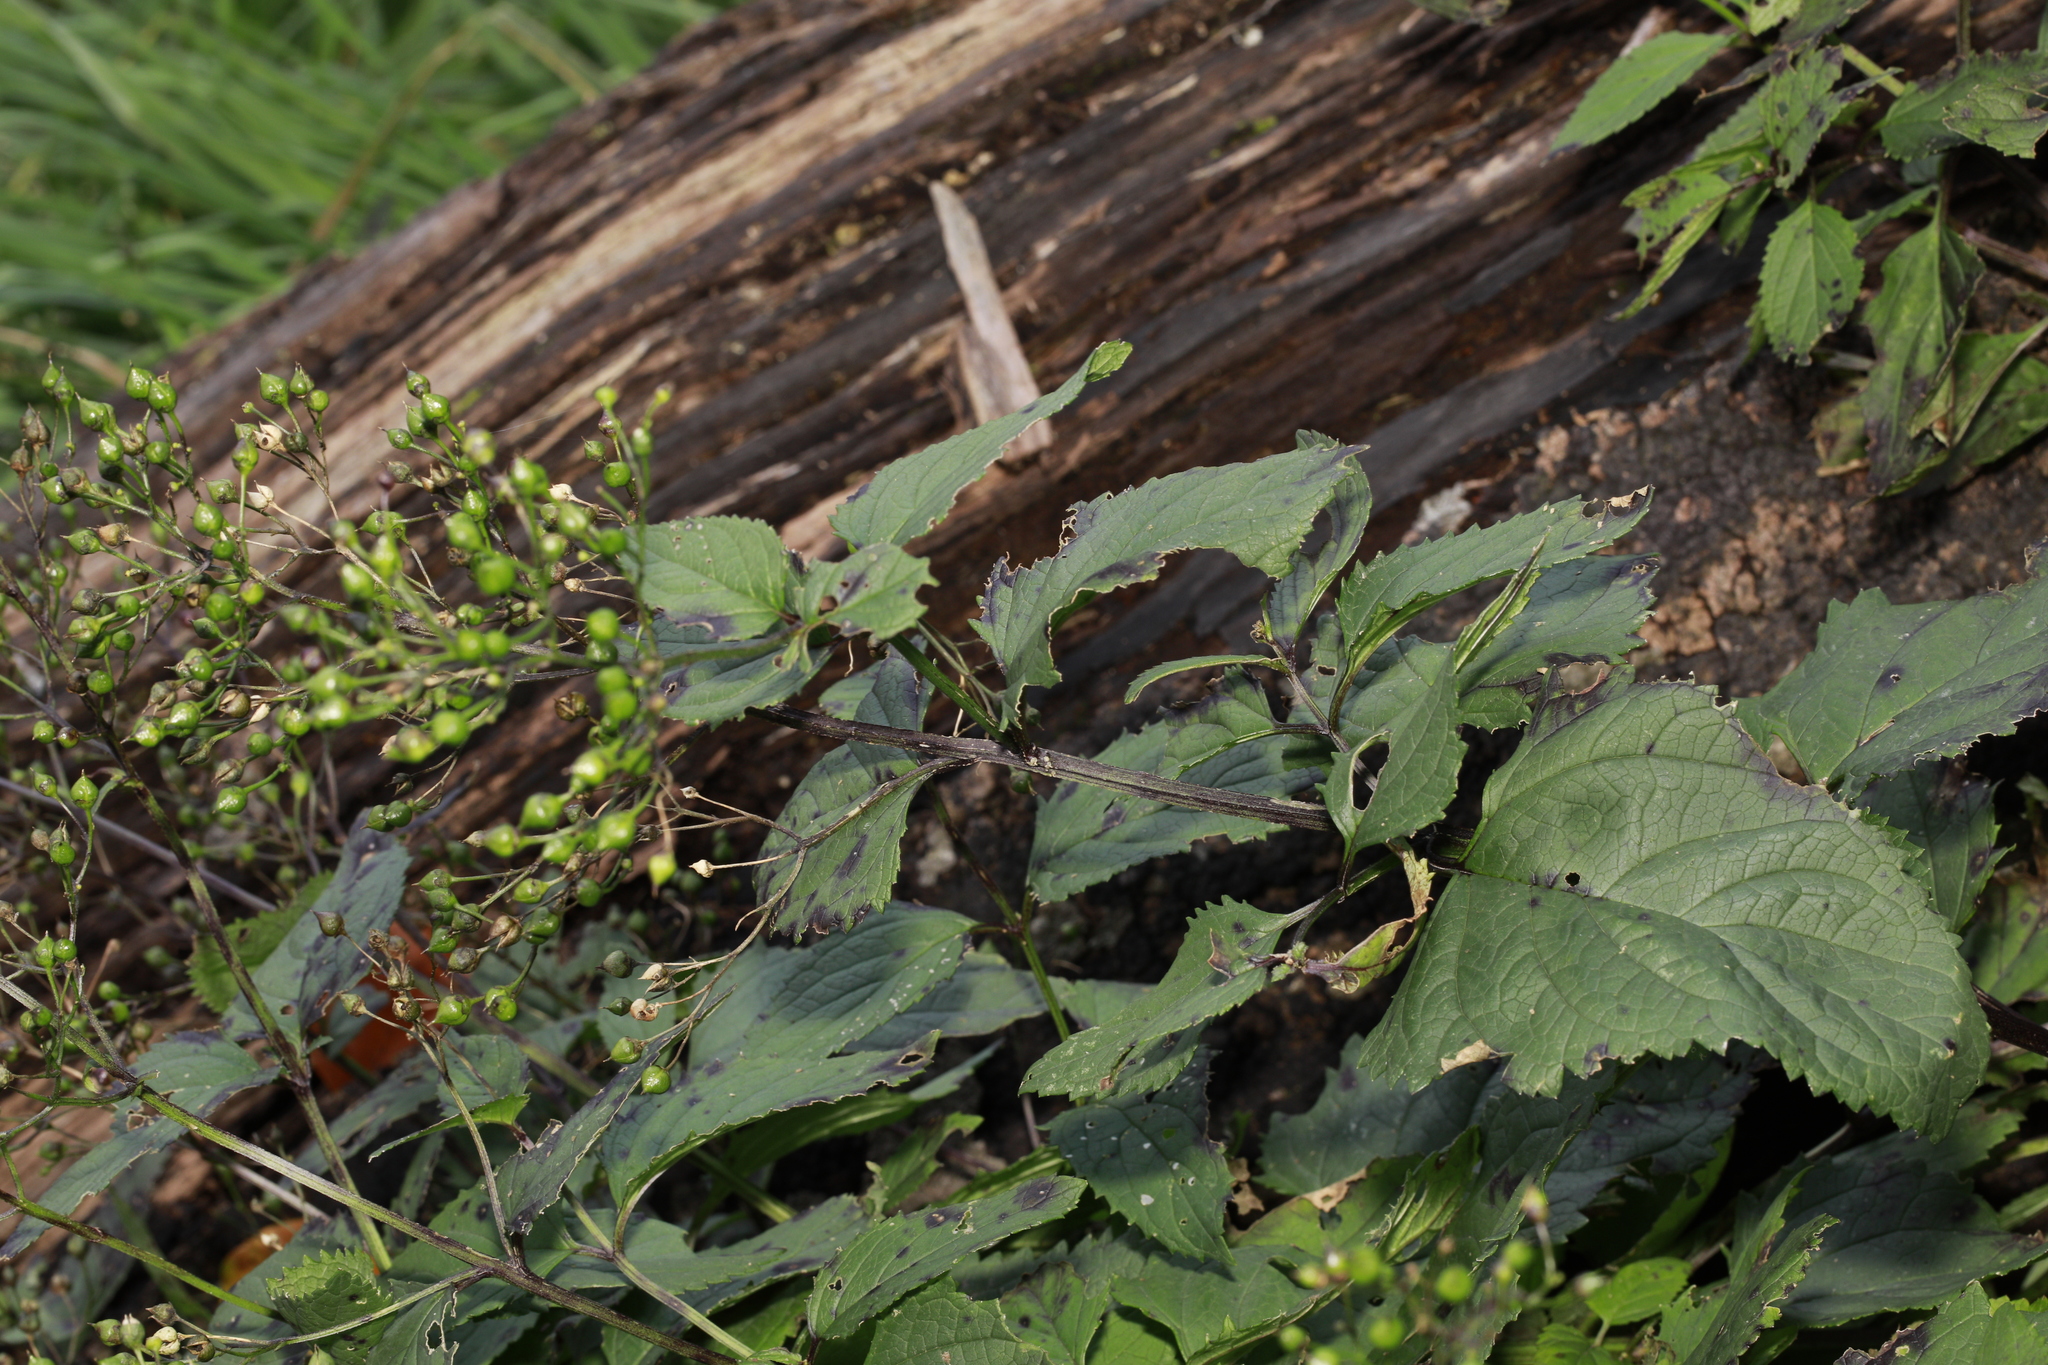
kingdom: Plantae
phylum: Tracheophyta
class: Magnoliopsida
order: Lamiales
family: Scrophulariaceae
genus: Scrophularia
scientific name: Scrophularia nodosa
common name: Common figwort
